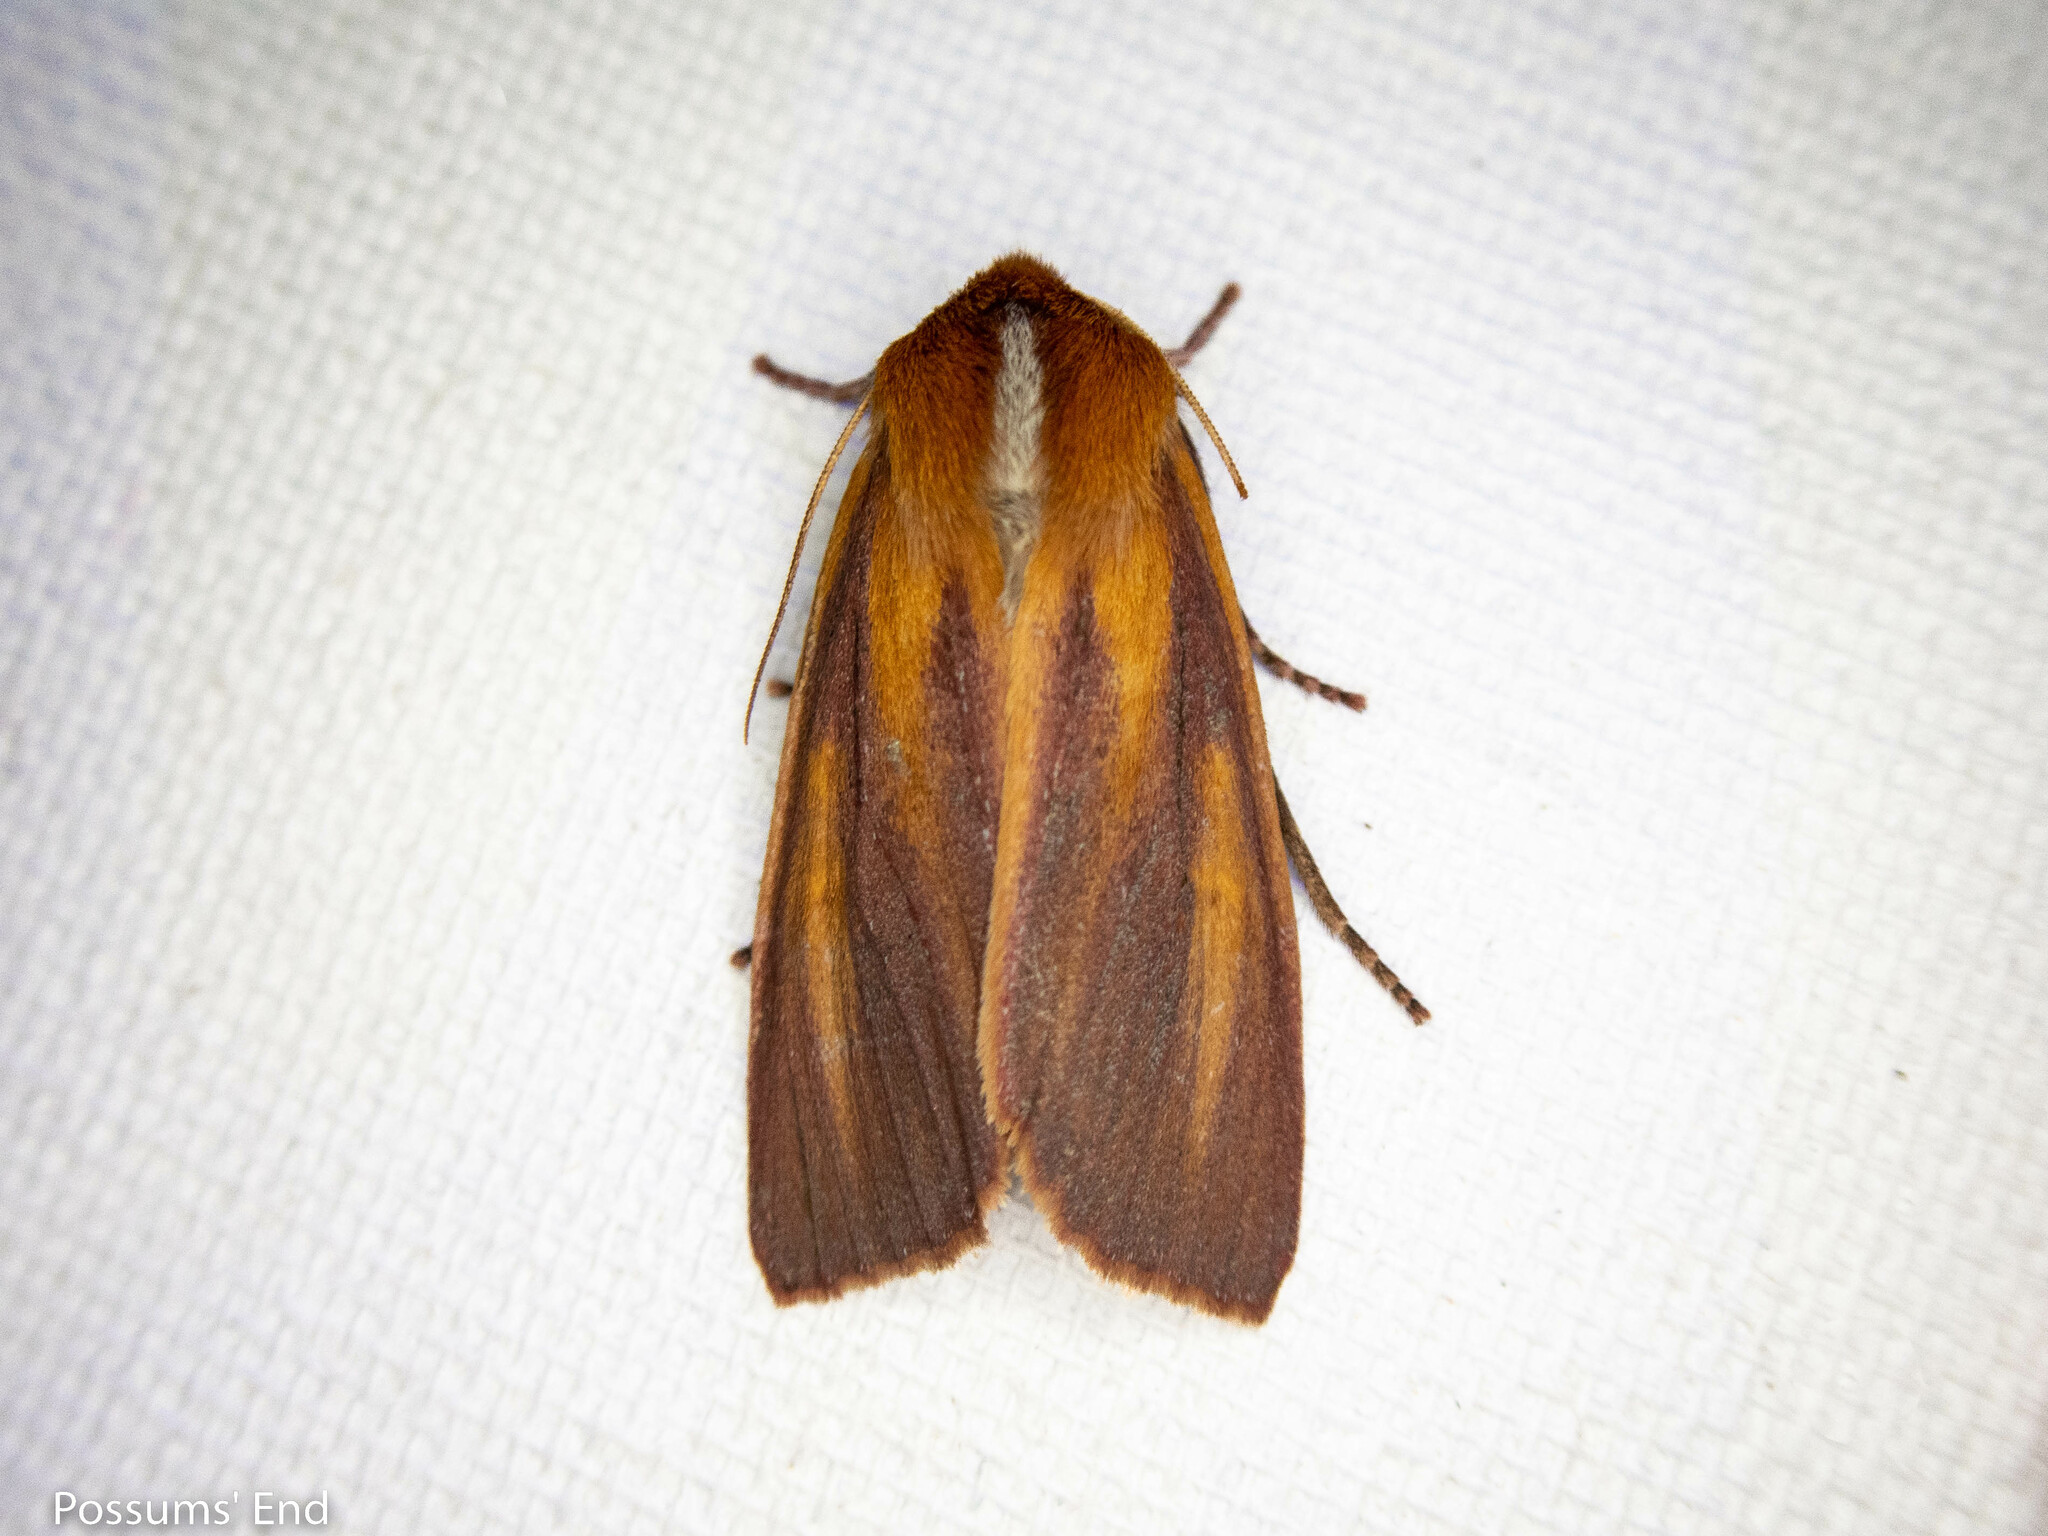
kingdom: Animalia
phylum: Arthropoda
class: Insecta
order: Lepidoptera
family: Noctuidae
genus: Ichneutica
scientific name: Ichneutica
